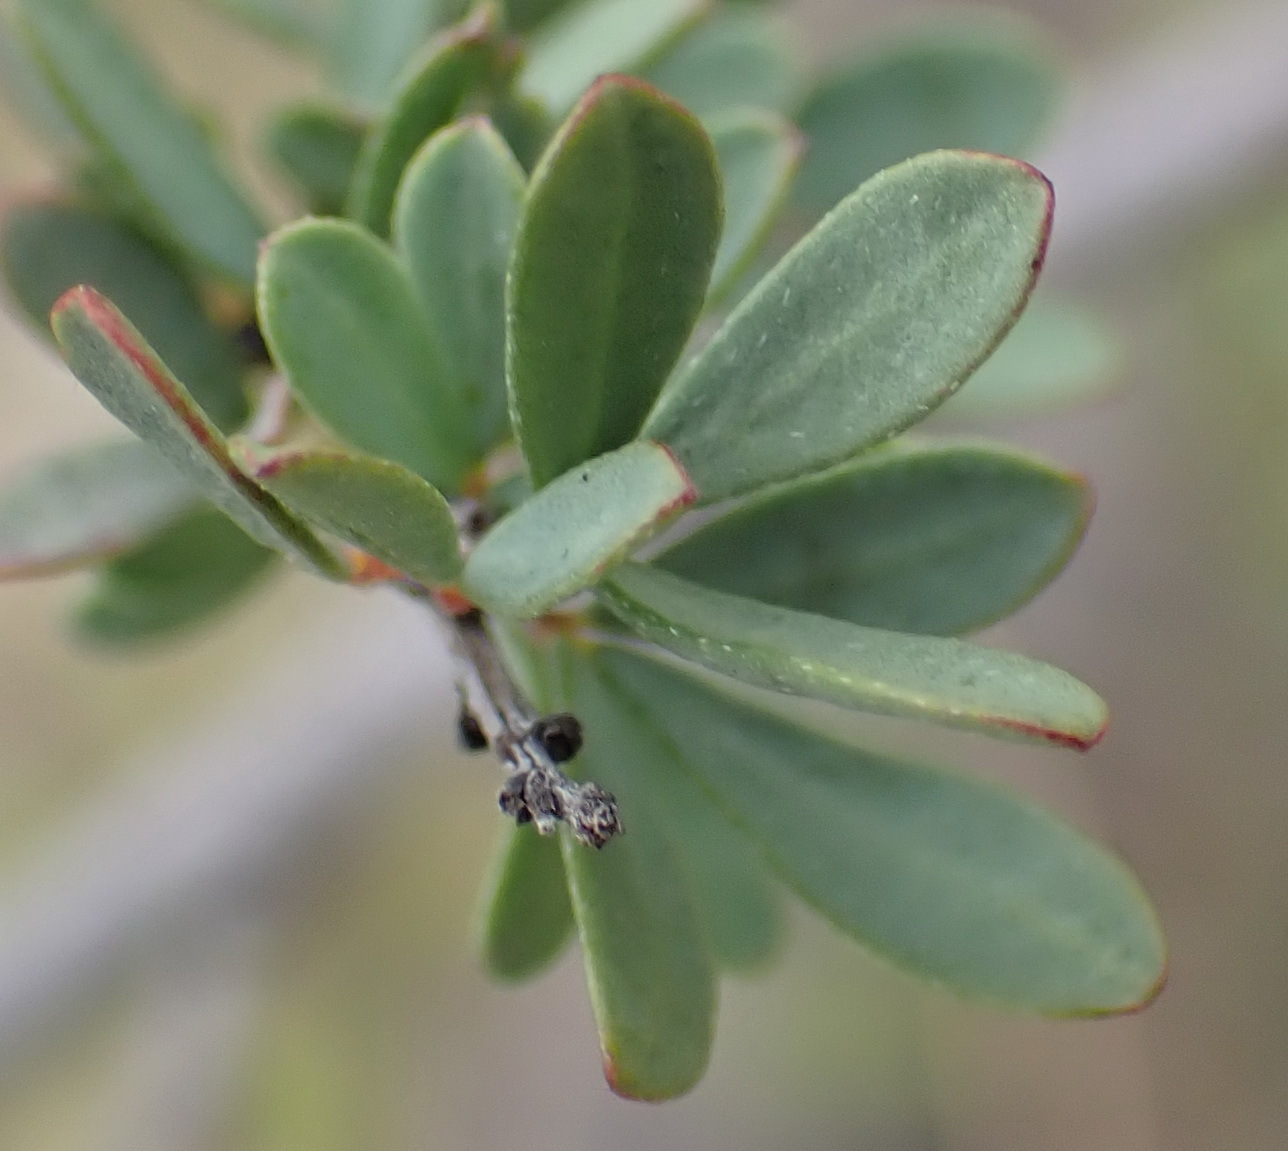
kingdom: Plantae
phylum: Tracheophyta
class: Magnoliopsida
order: Fabales
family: Fabaceae
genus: Indigofera
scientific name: Indigofera denudata
